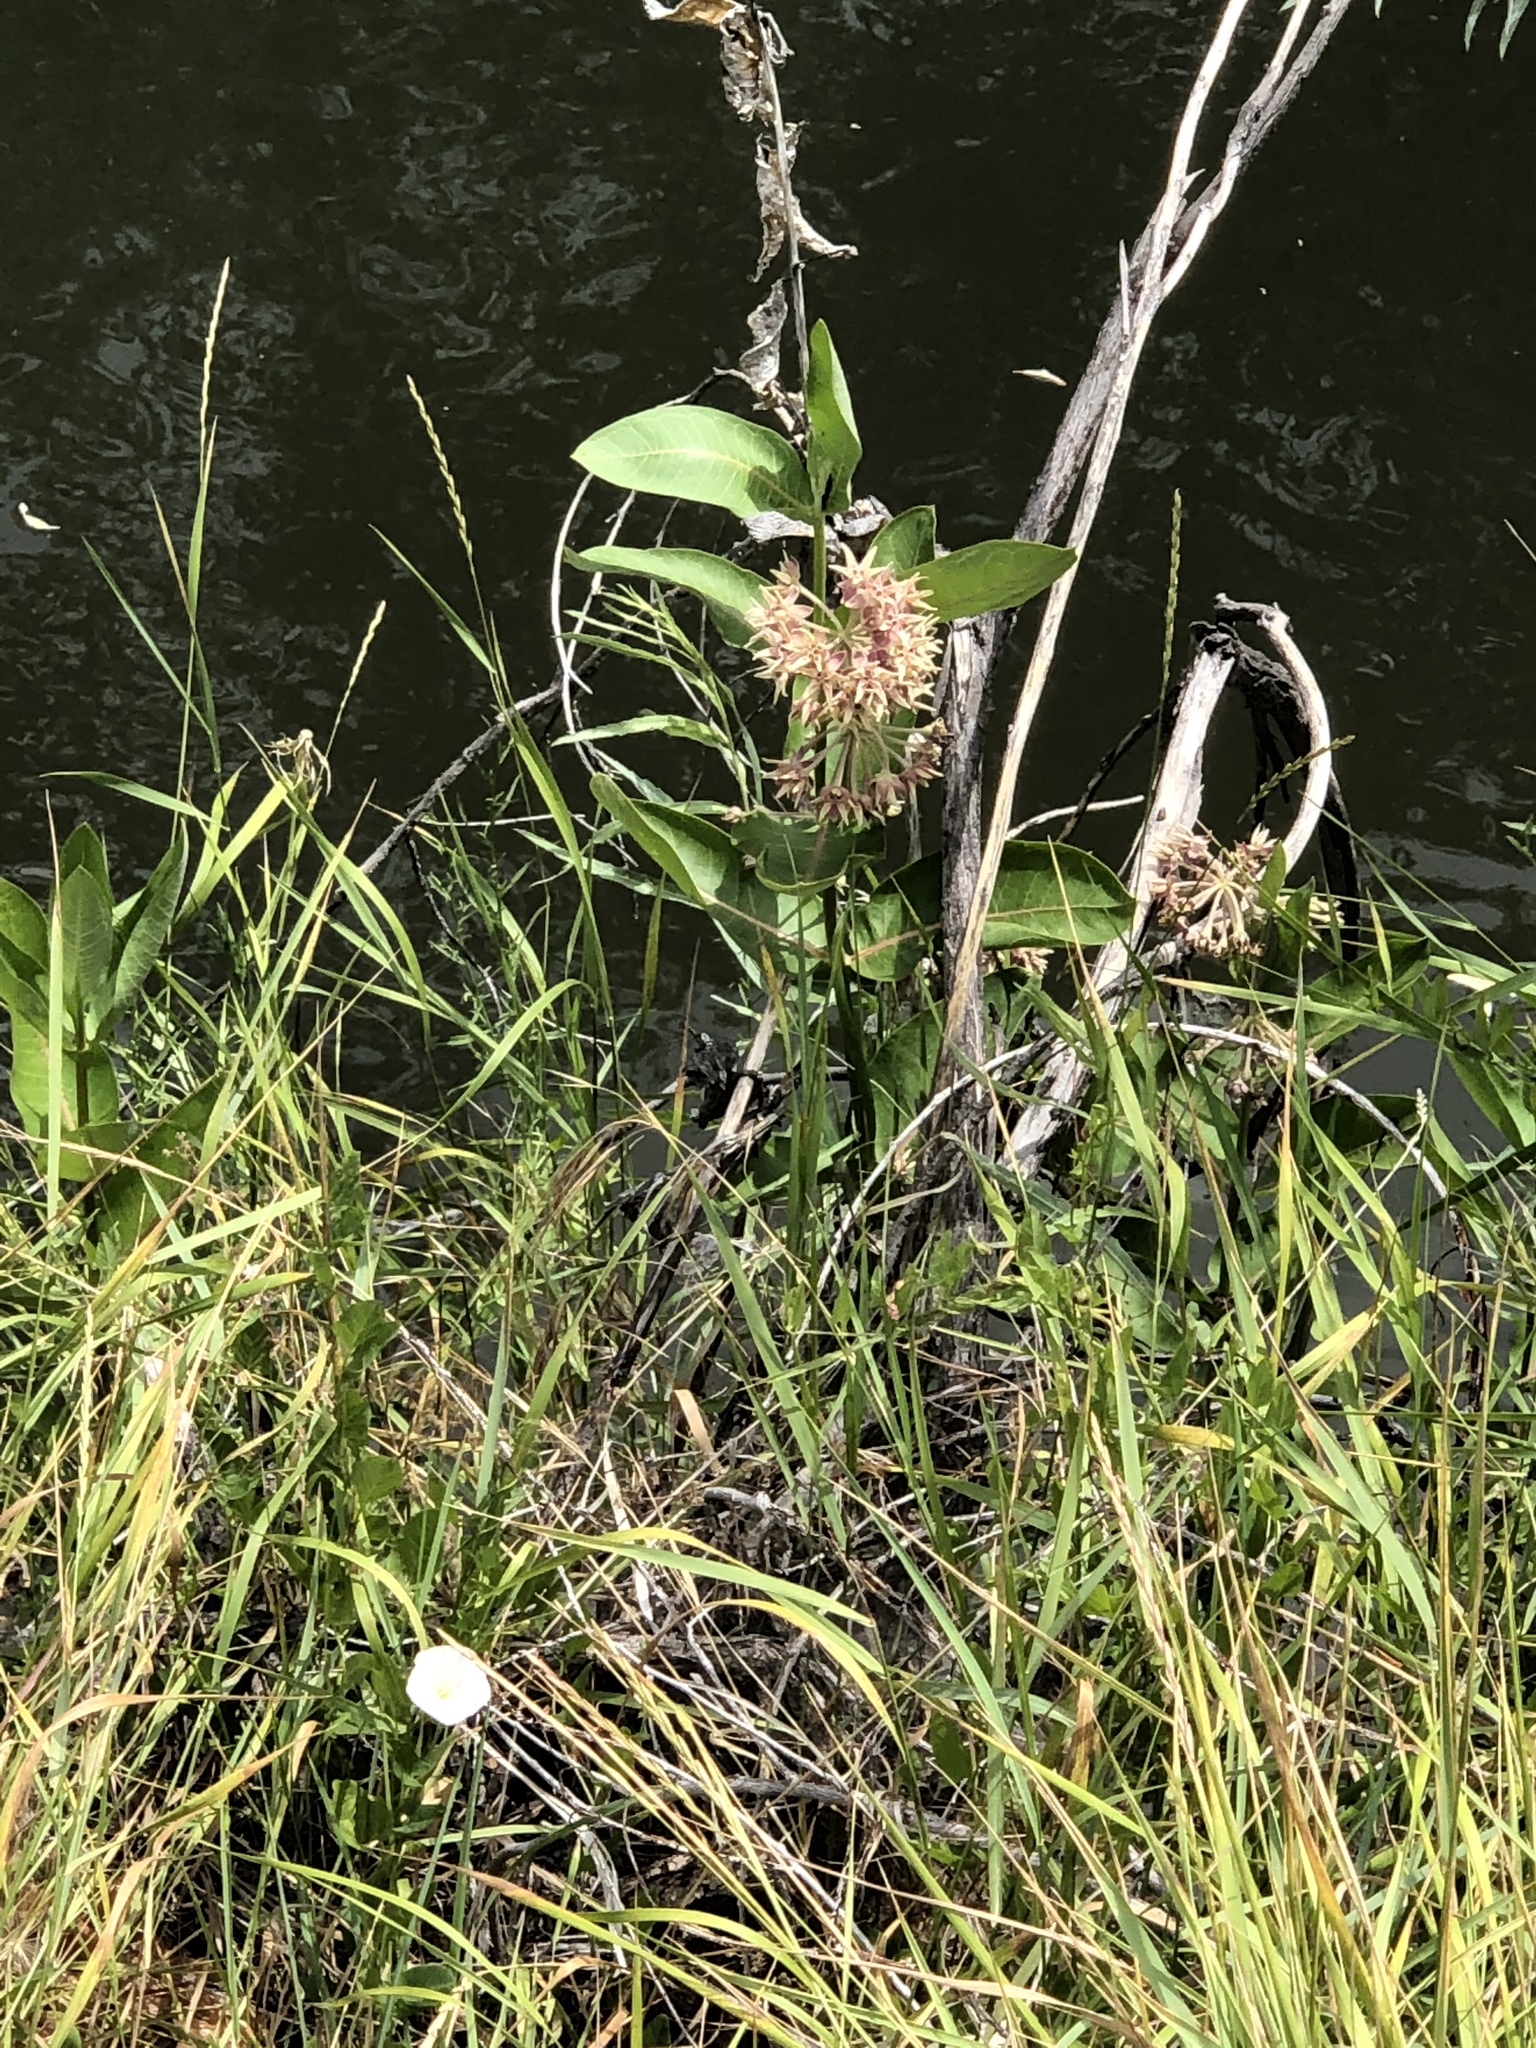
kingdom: Plantae
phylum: Tracheophyta
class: Magnoliopsida
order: Gentianales
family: Apocynaceae
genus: Asclepias
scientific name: Asclepias speciosa
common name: Showy milkweed
